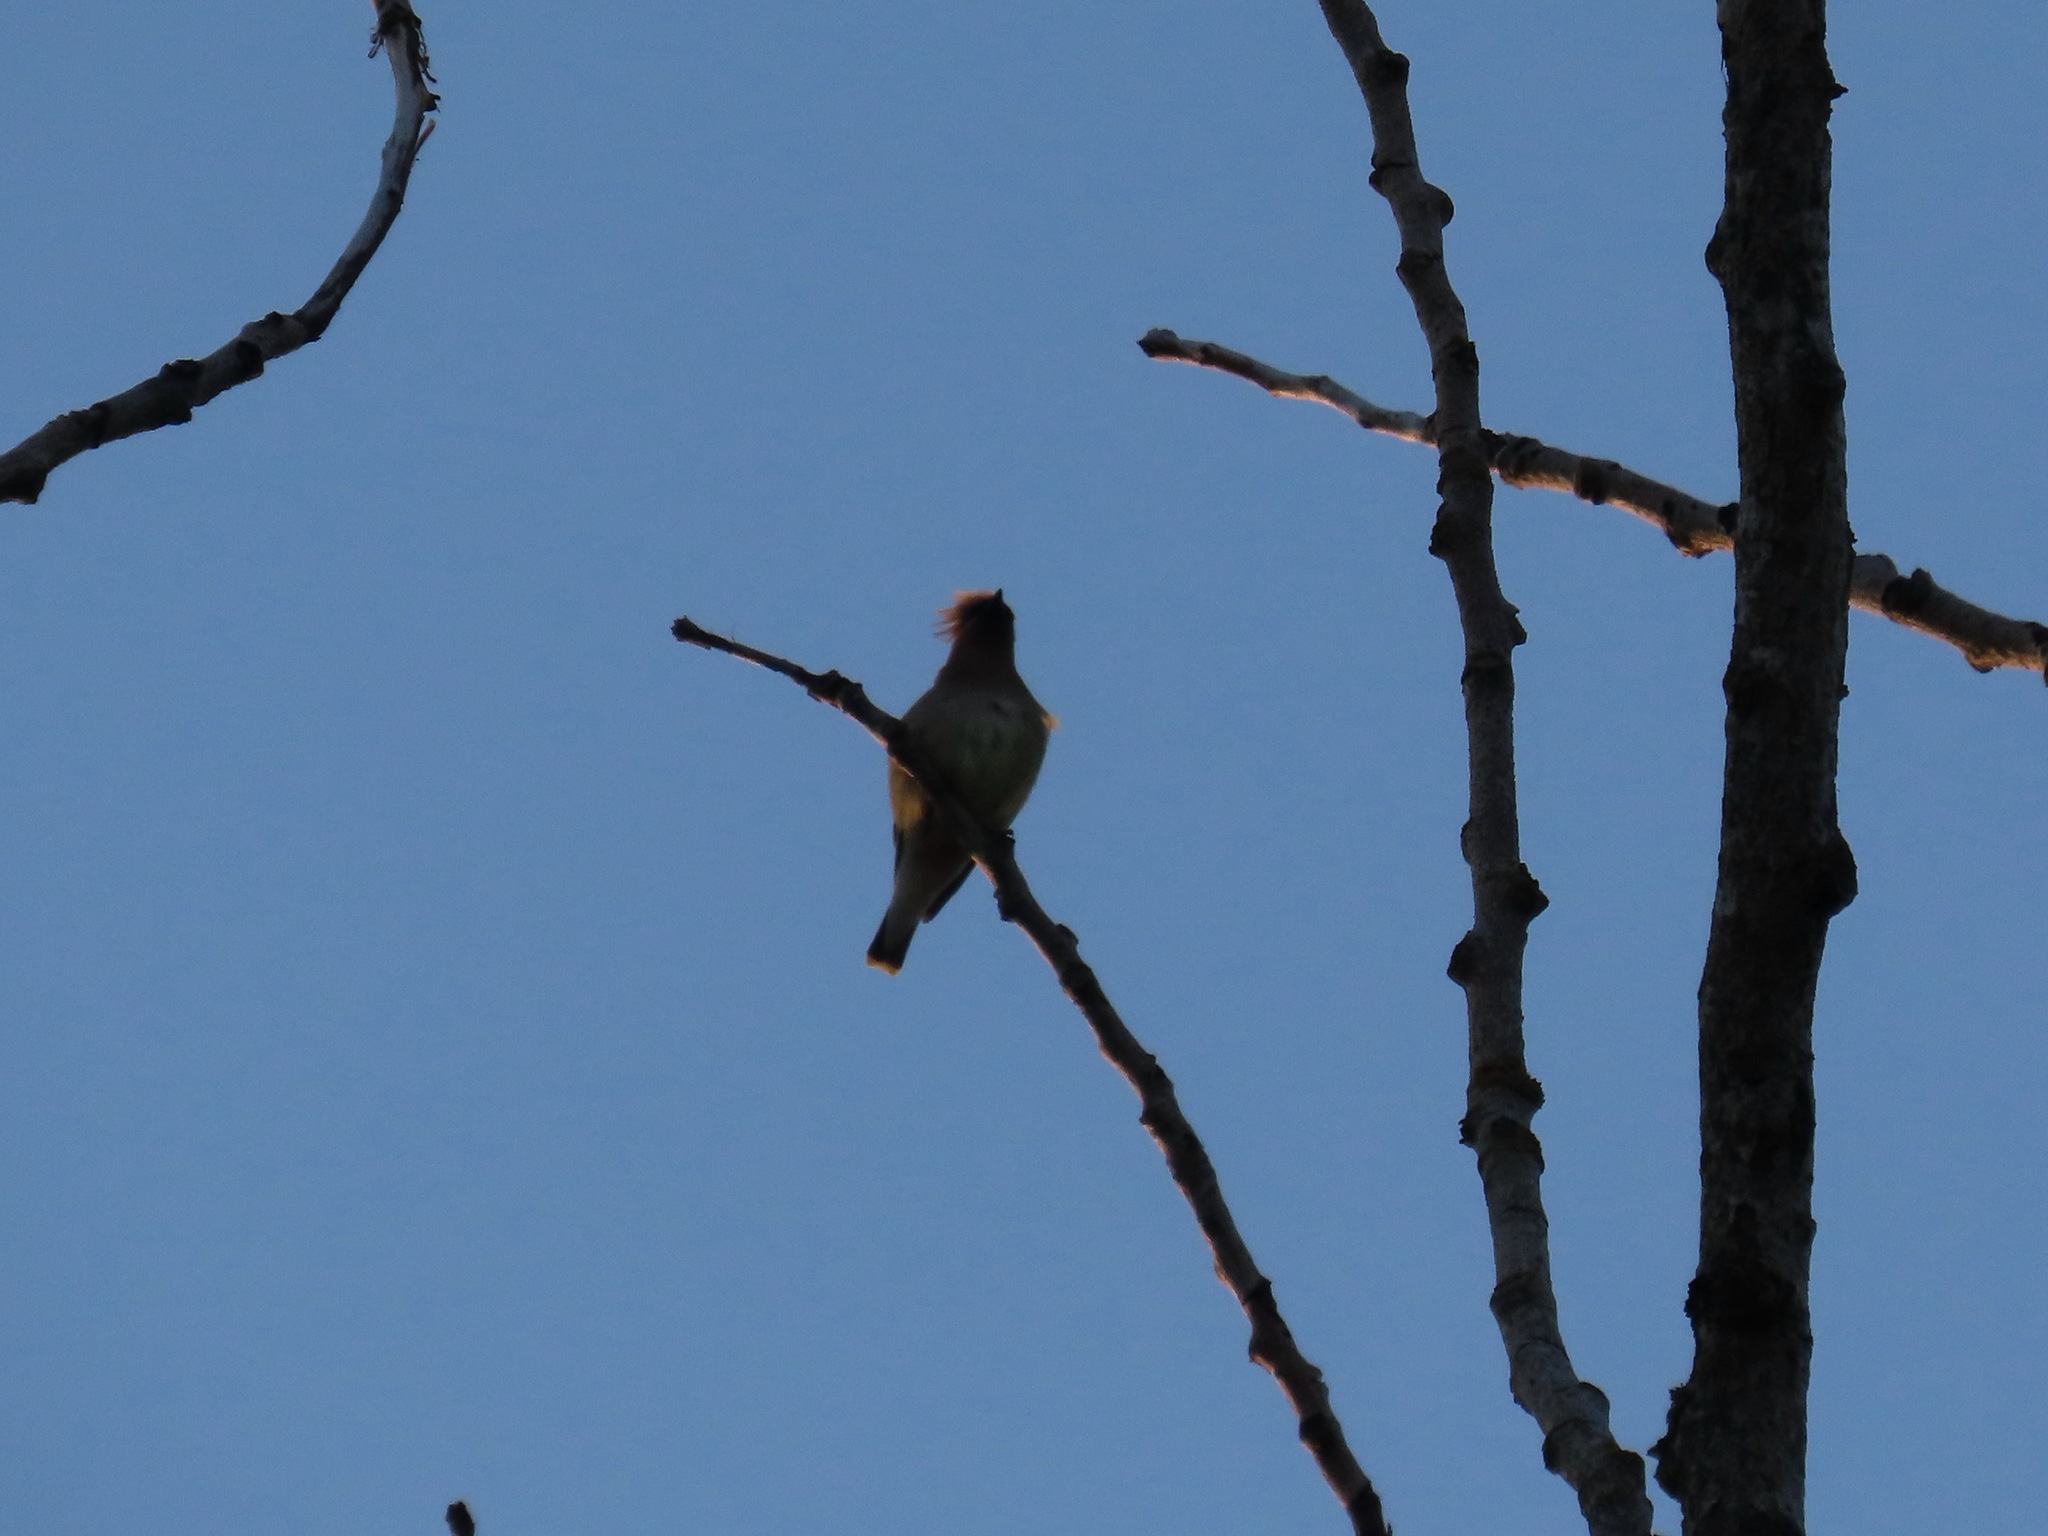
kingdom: Animalia
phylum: Chordata
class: Aves
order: Passeriformes
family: Bombycillidae
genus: Bombycilla
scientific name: Bombycilla cedrorum
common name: Cedar waxwing
